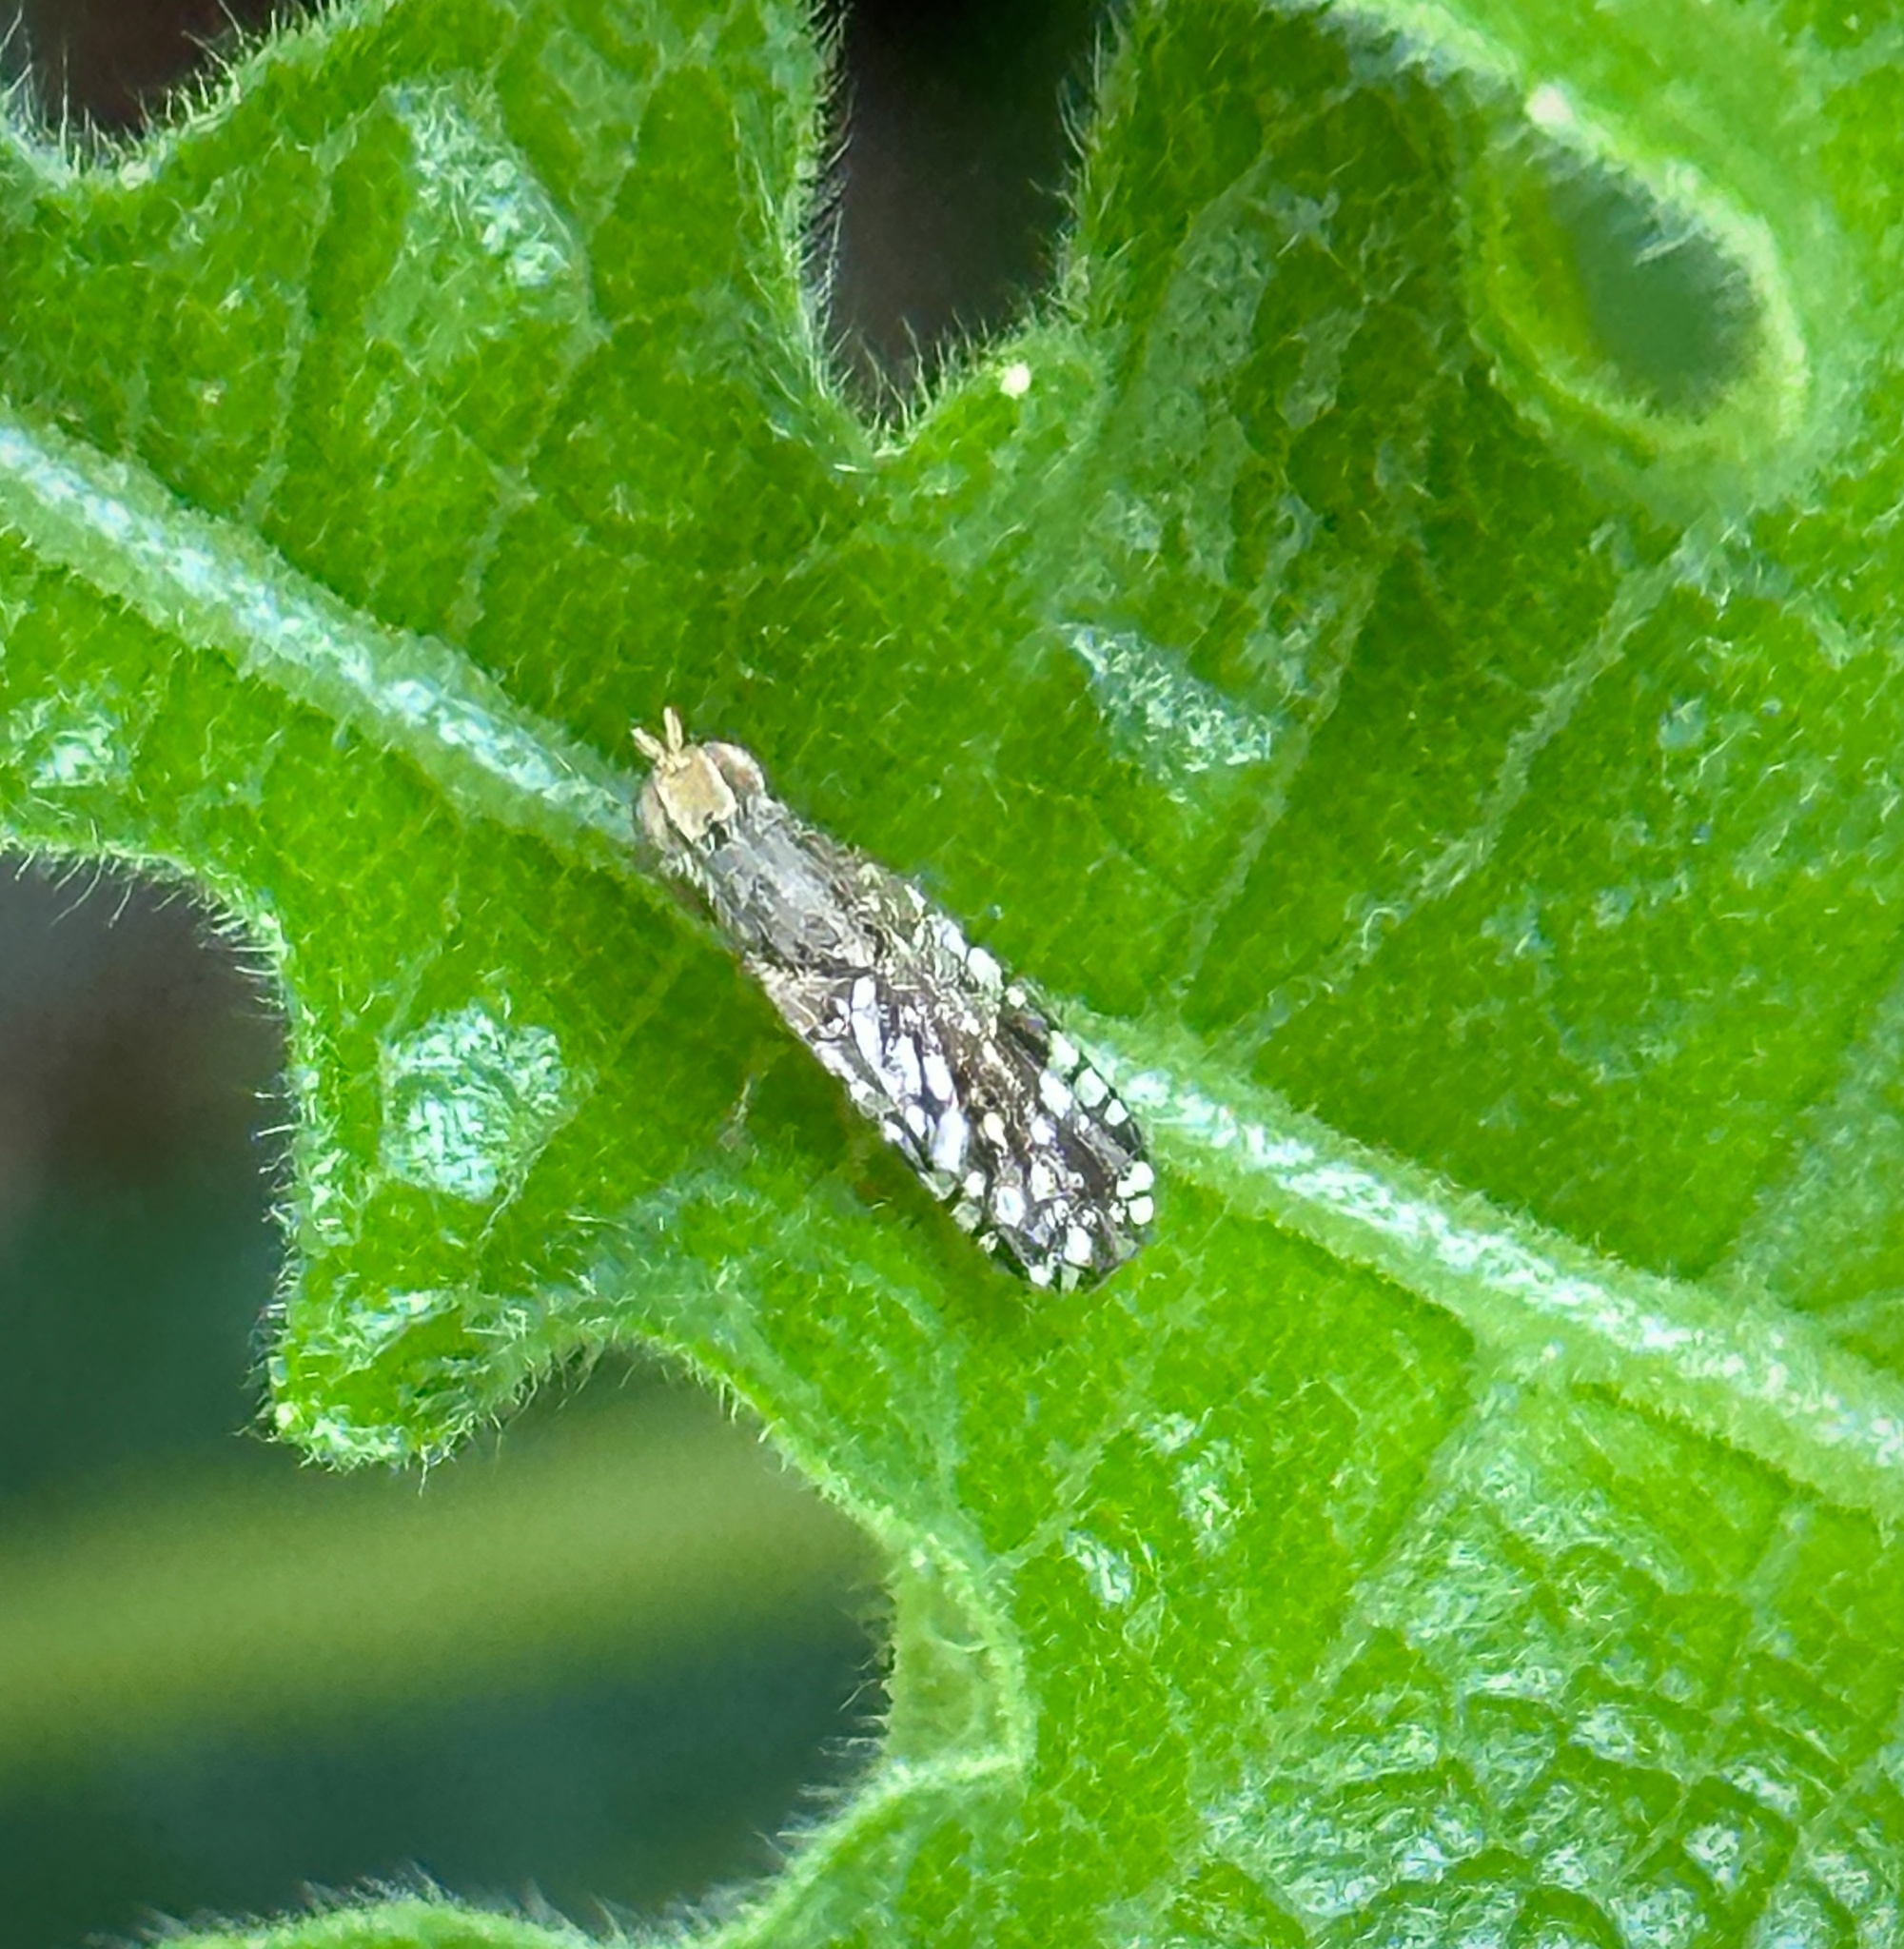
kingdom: Animalia
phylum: Arthropoda
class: Insecta
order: Diptera
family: Tephritidae
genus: Neotephritis
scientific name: Neotephritis finalis
